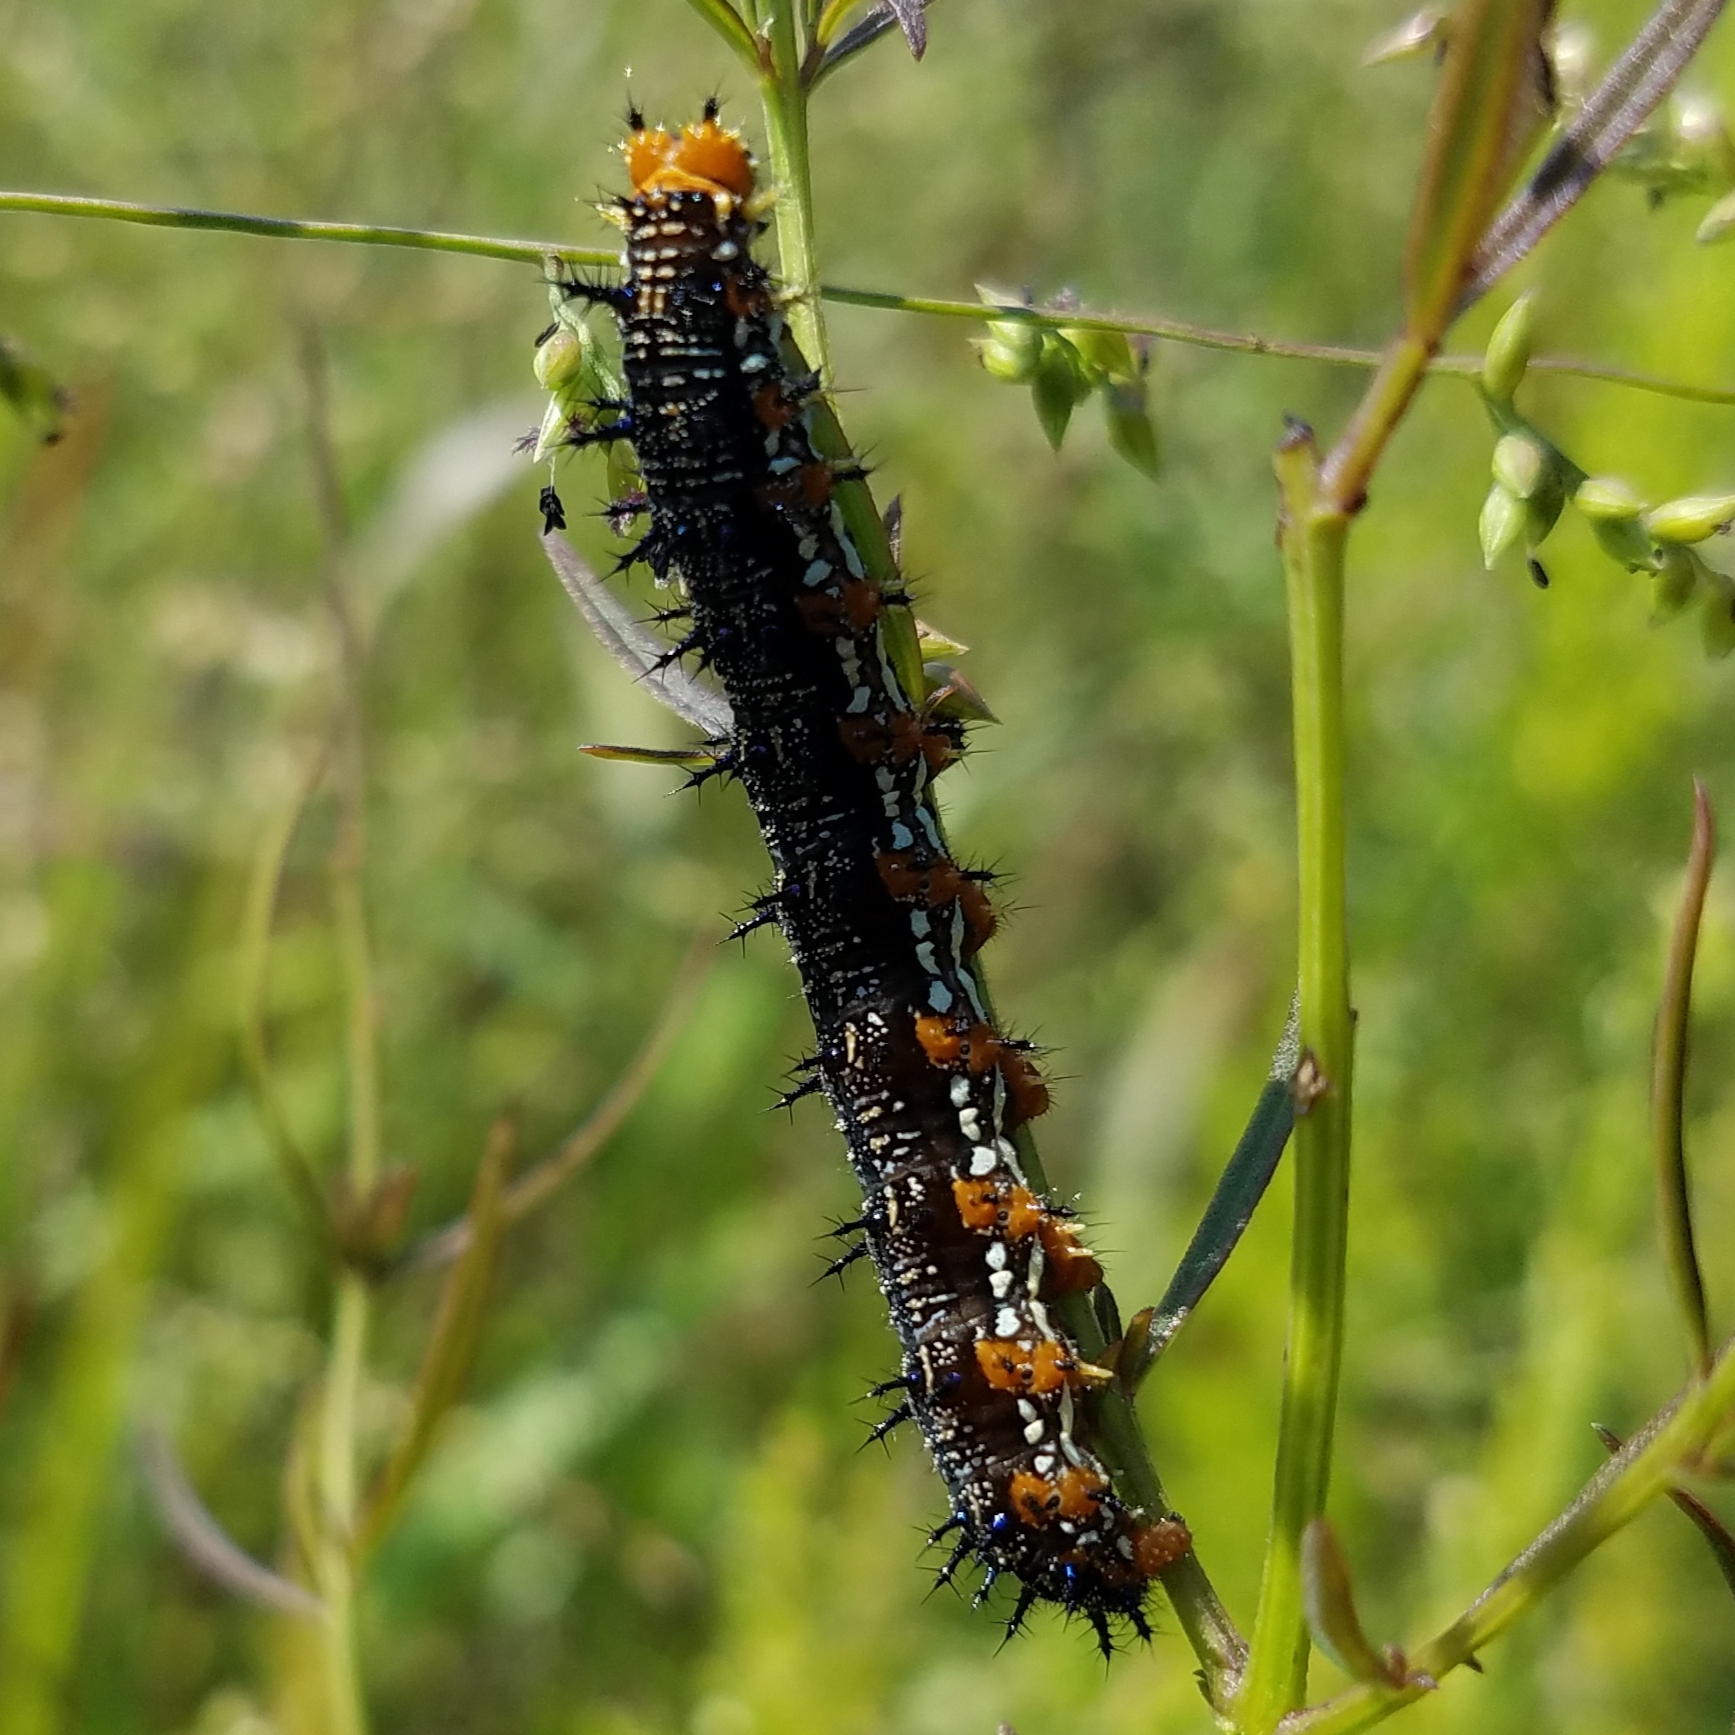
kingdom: Animalia
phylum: Arthropoda
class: Insecta
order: Lepidoptera
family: Nymphalidae
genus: Junonia
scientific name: Junonia coenia
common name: Common buckeye
